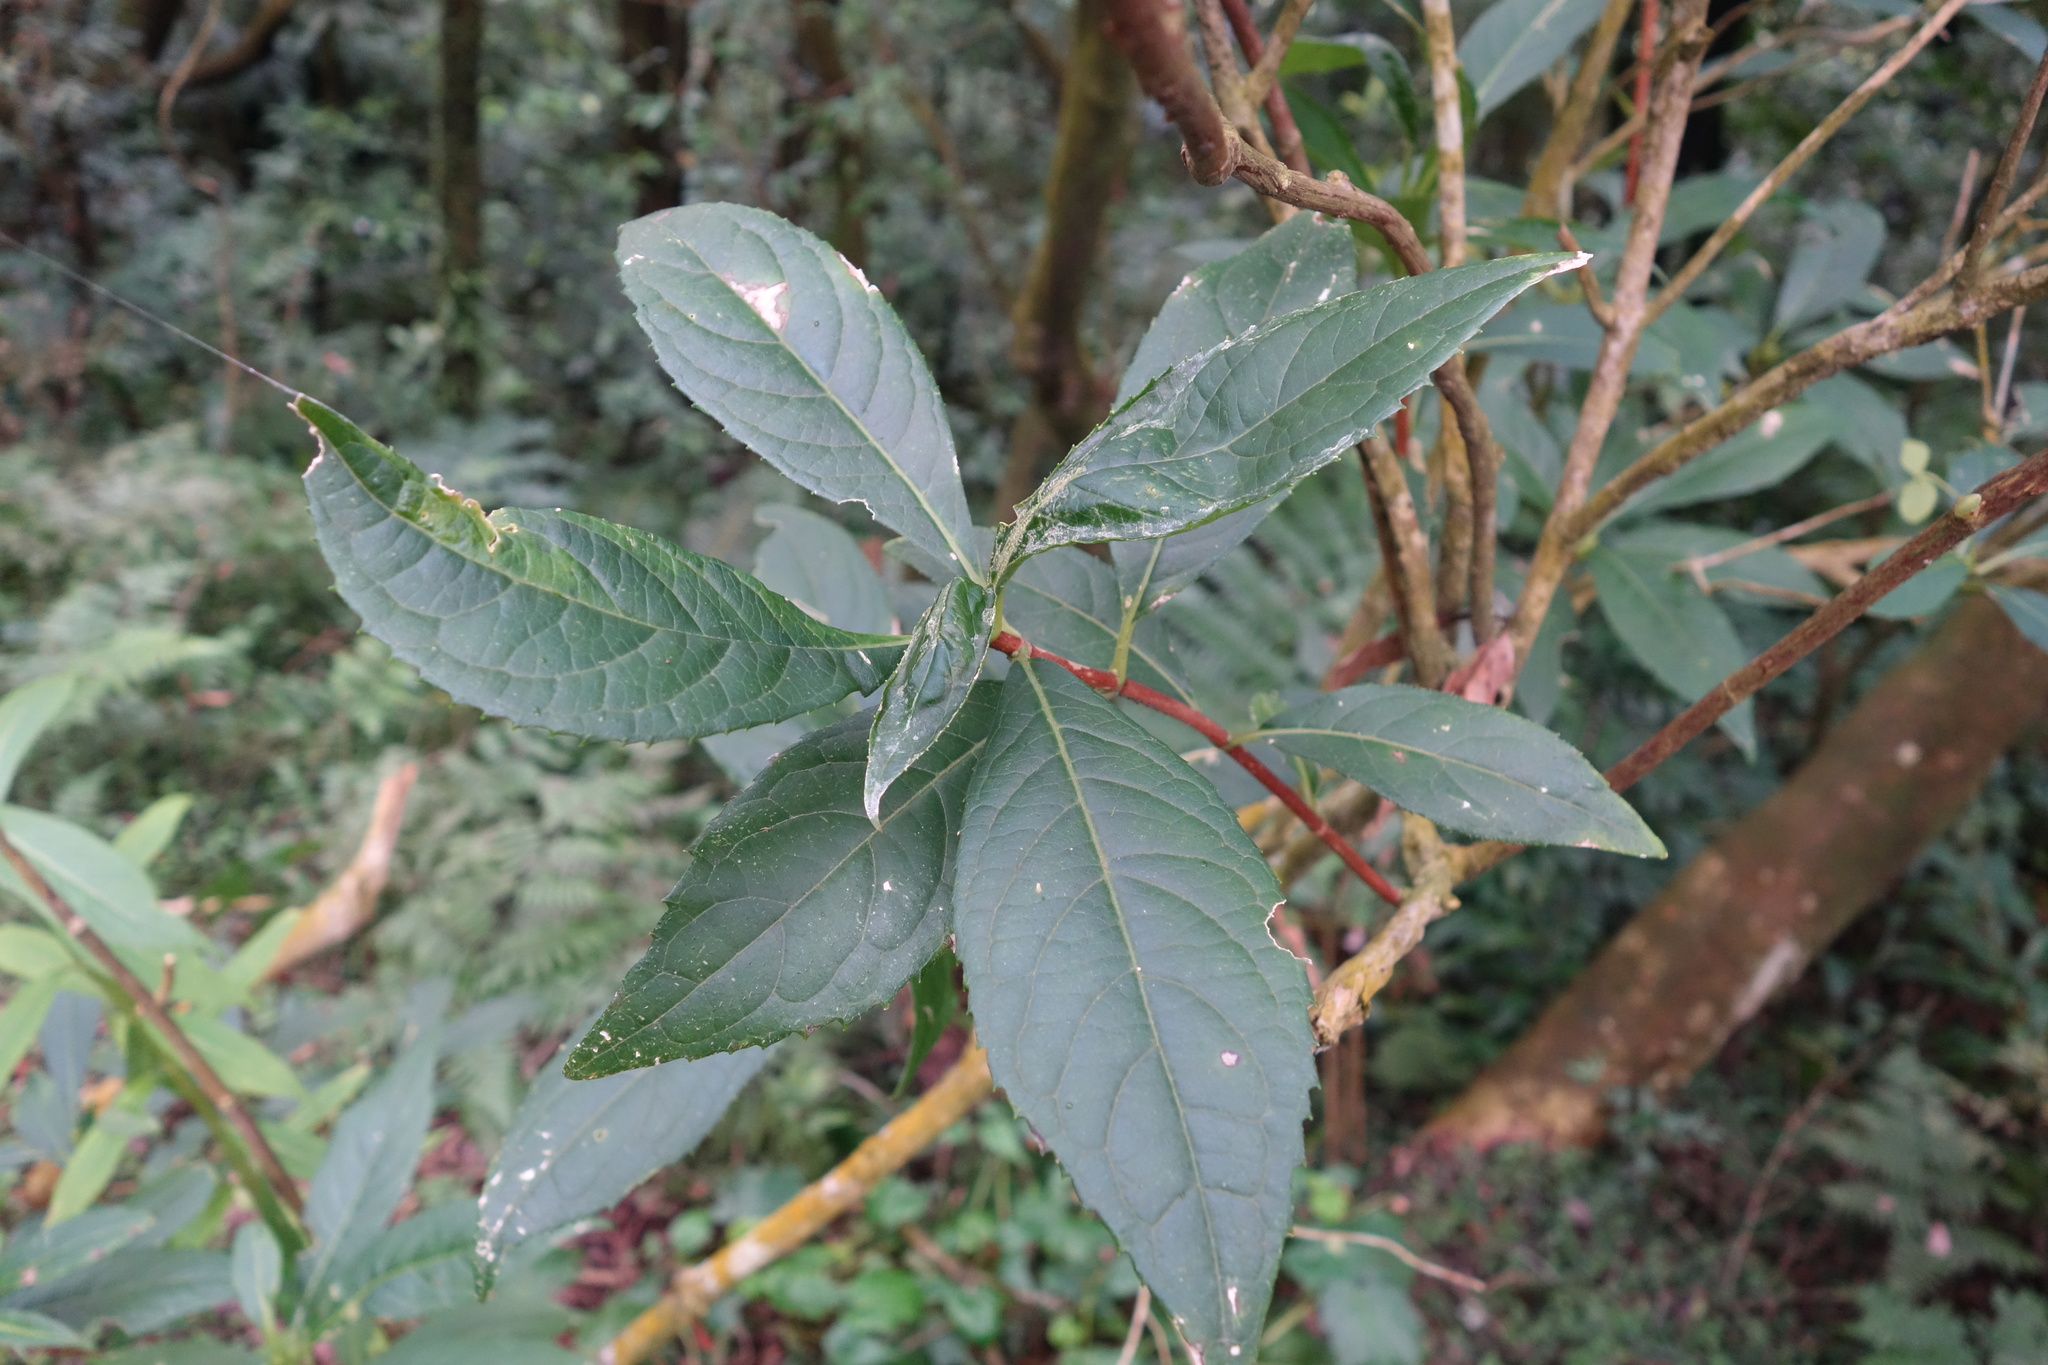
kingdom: Plantae
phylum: Tracheophyta
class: Magnoliopsida
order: Cornales
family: Hydrangeaceae
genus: Hydrangea
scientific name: Hydrangea chinensis
